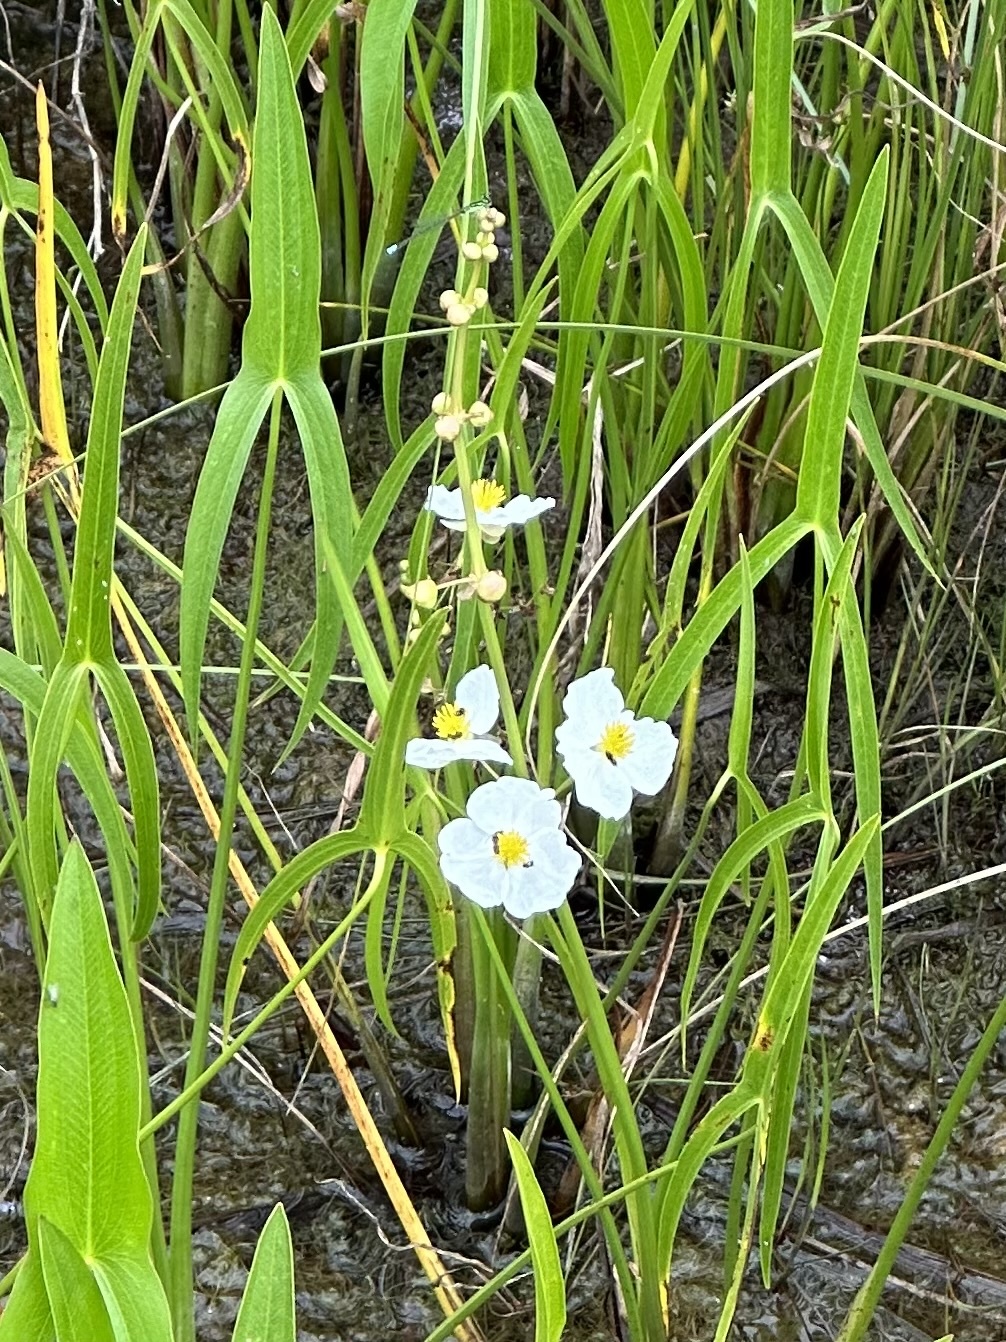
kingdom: Plantae
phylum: Tracheophyta
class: Liliopsida
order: Alismatales
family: Alismataceae
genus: Sagittaria
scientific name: Sagittaria latifolia
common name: Duck-potato
